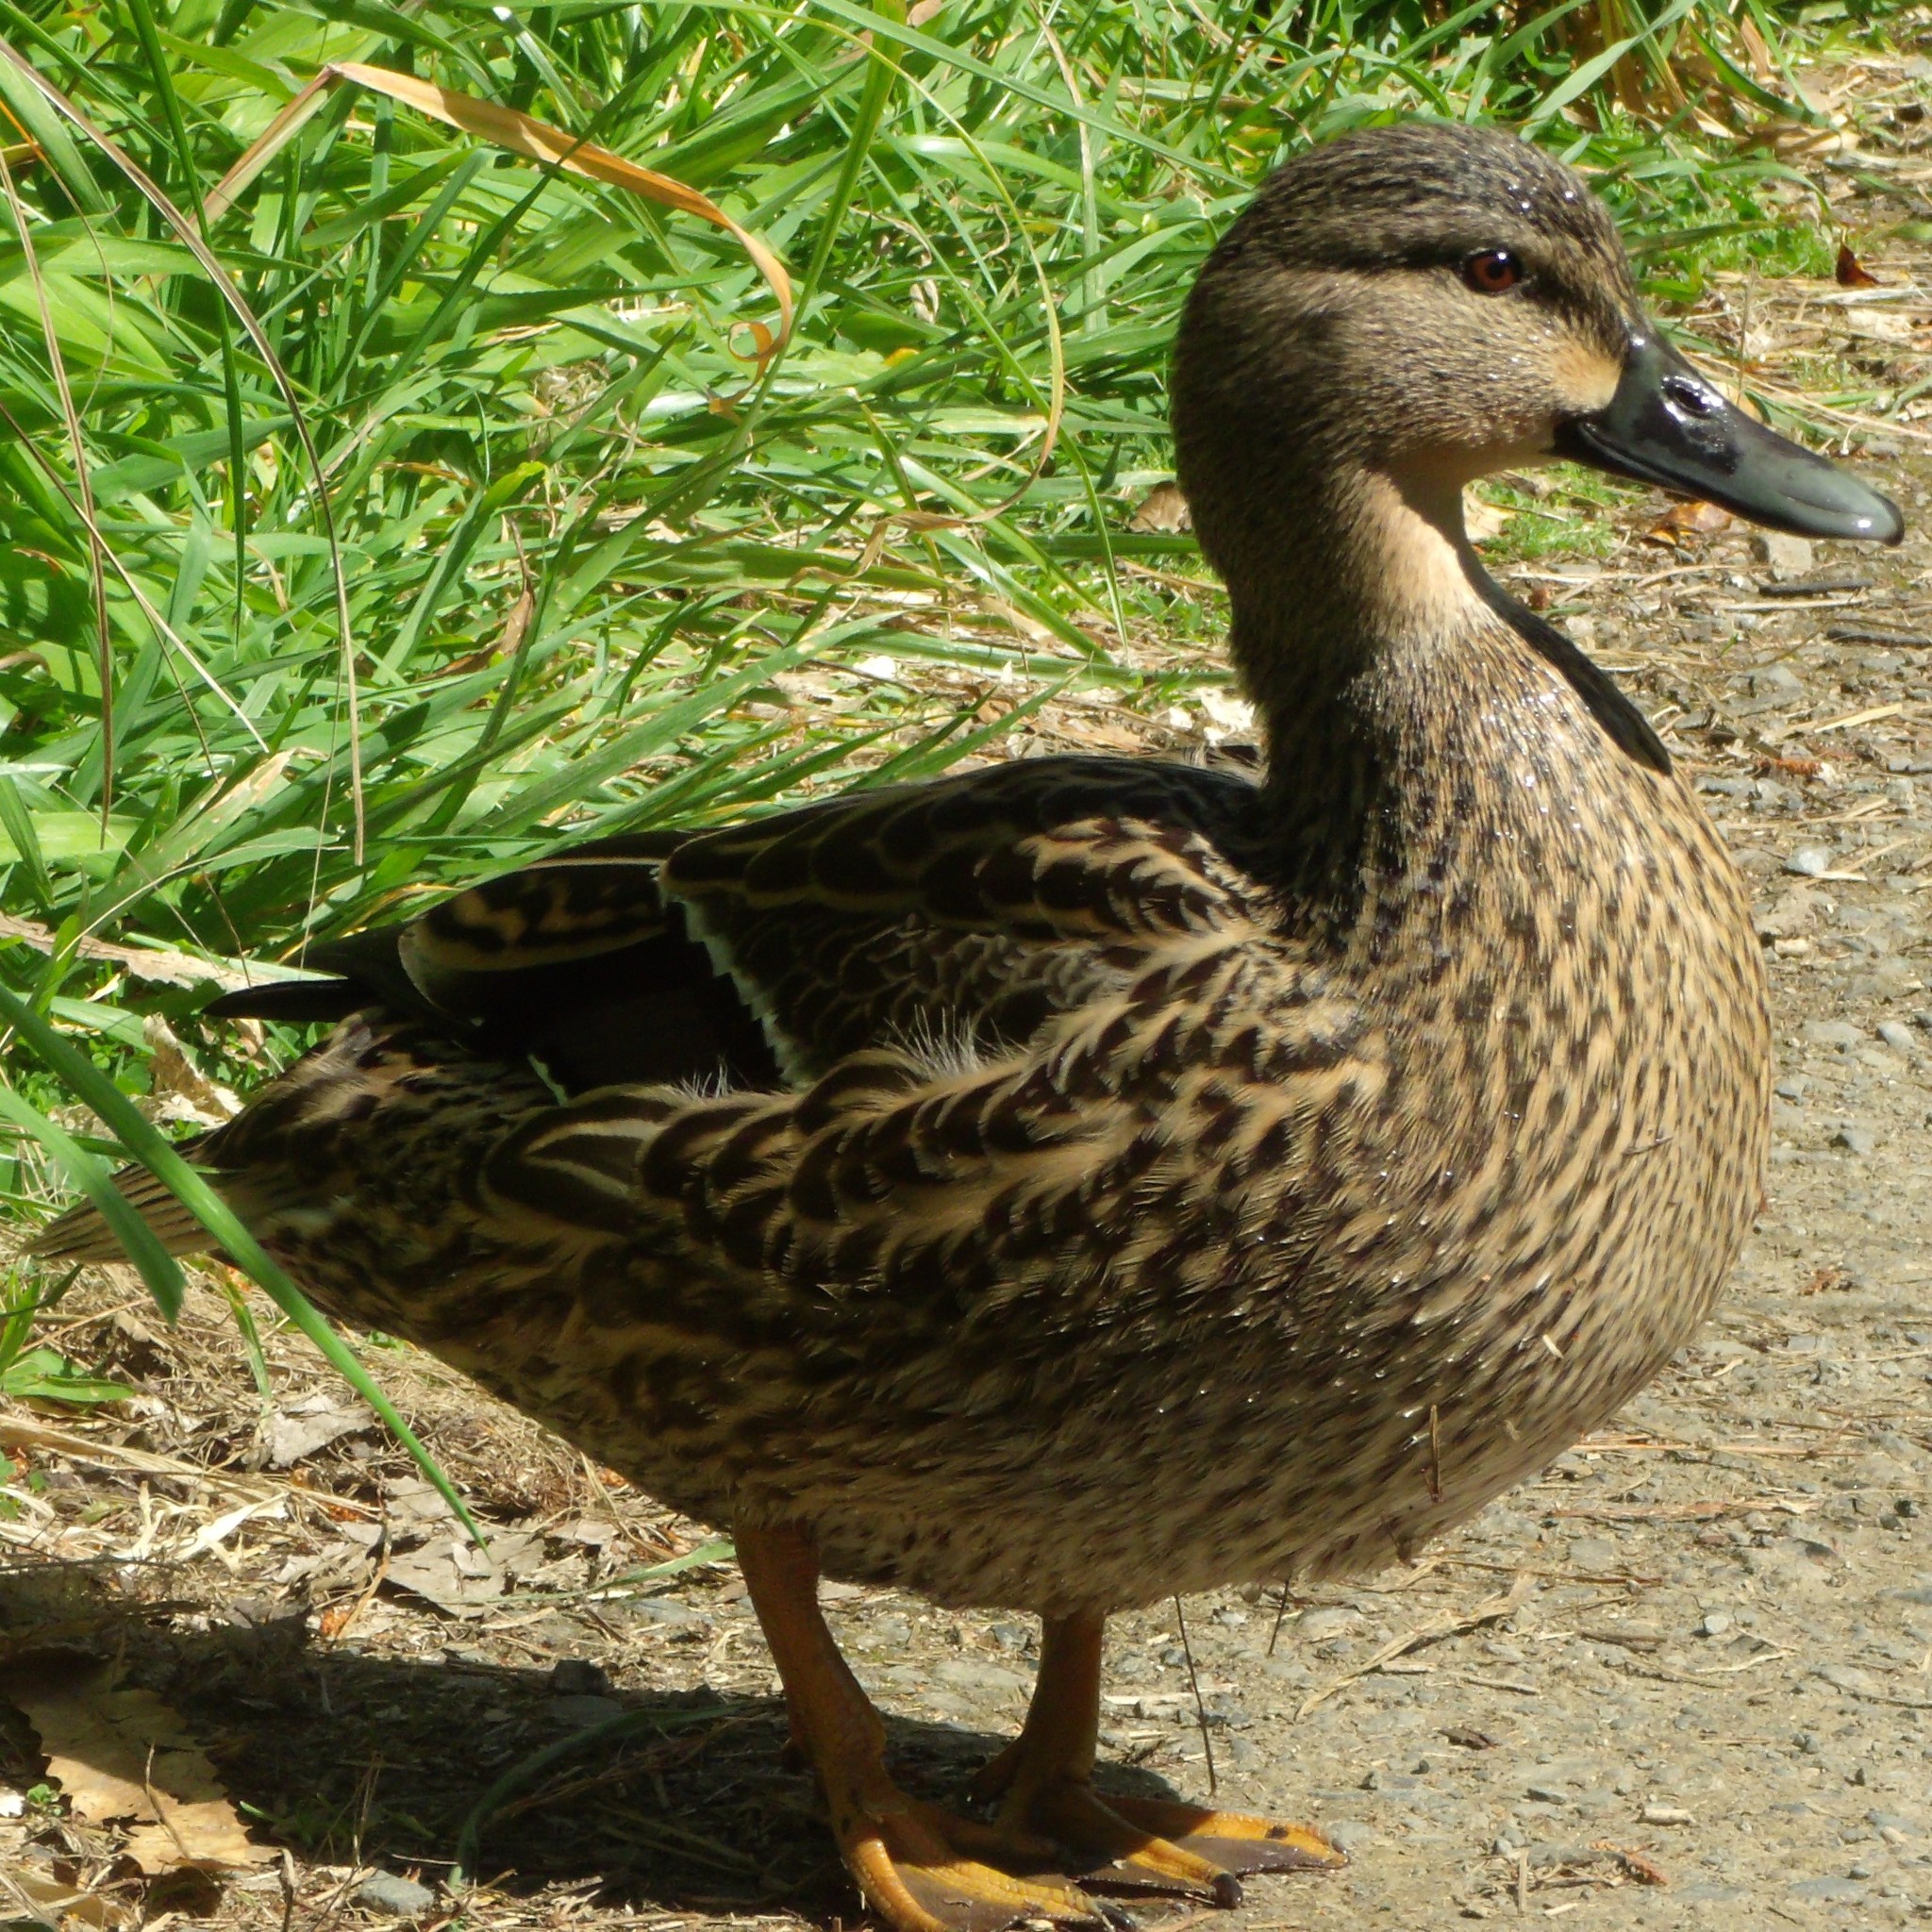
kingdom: Animalia
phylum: Chordata
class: Aves
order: Anseriformes
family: Anatidae
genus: Anas
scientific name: Anas platyrhynchos
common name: Mallard
